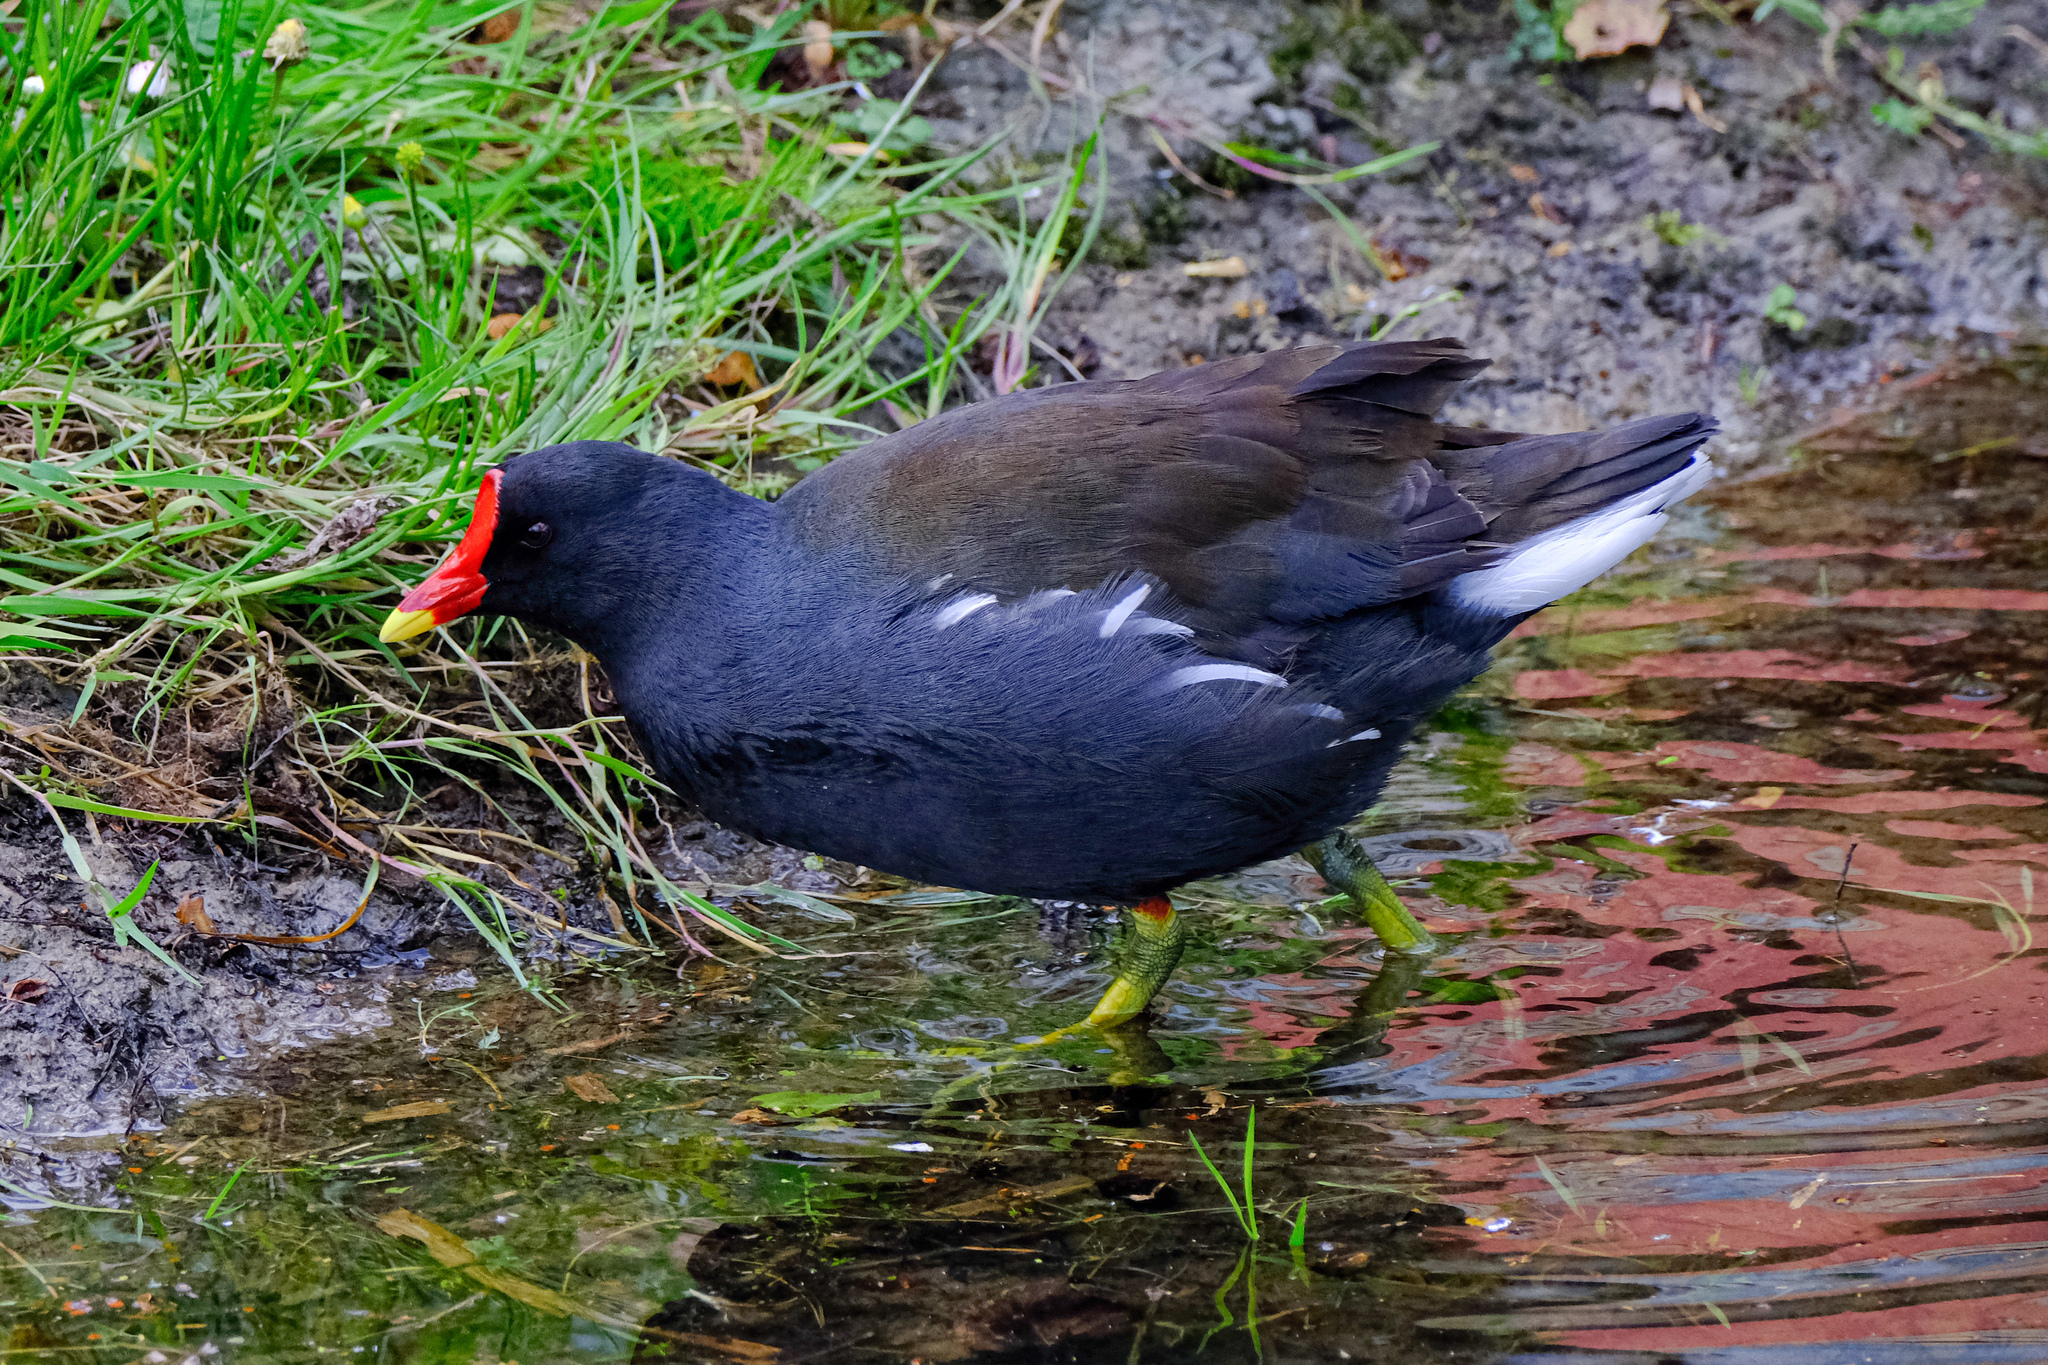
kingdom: Animalia
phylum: Chordata
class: Aves
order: Gruiformes
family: Rallidae
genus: Gallinula
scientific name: Gallinula chloropus
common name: Common moorhen
